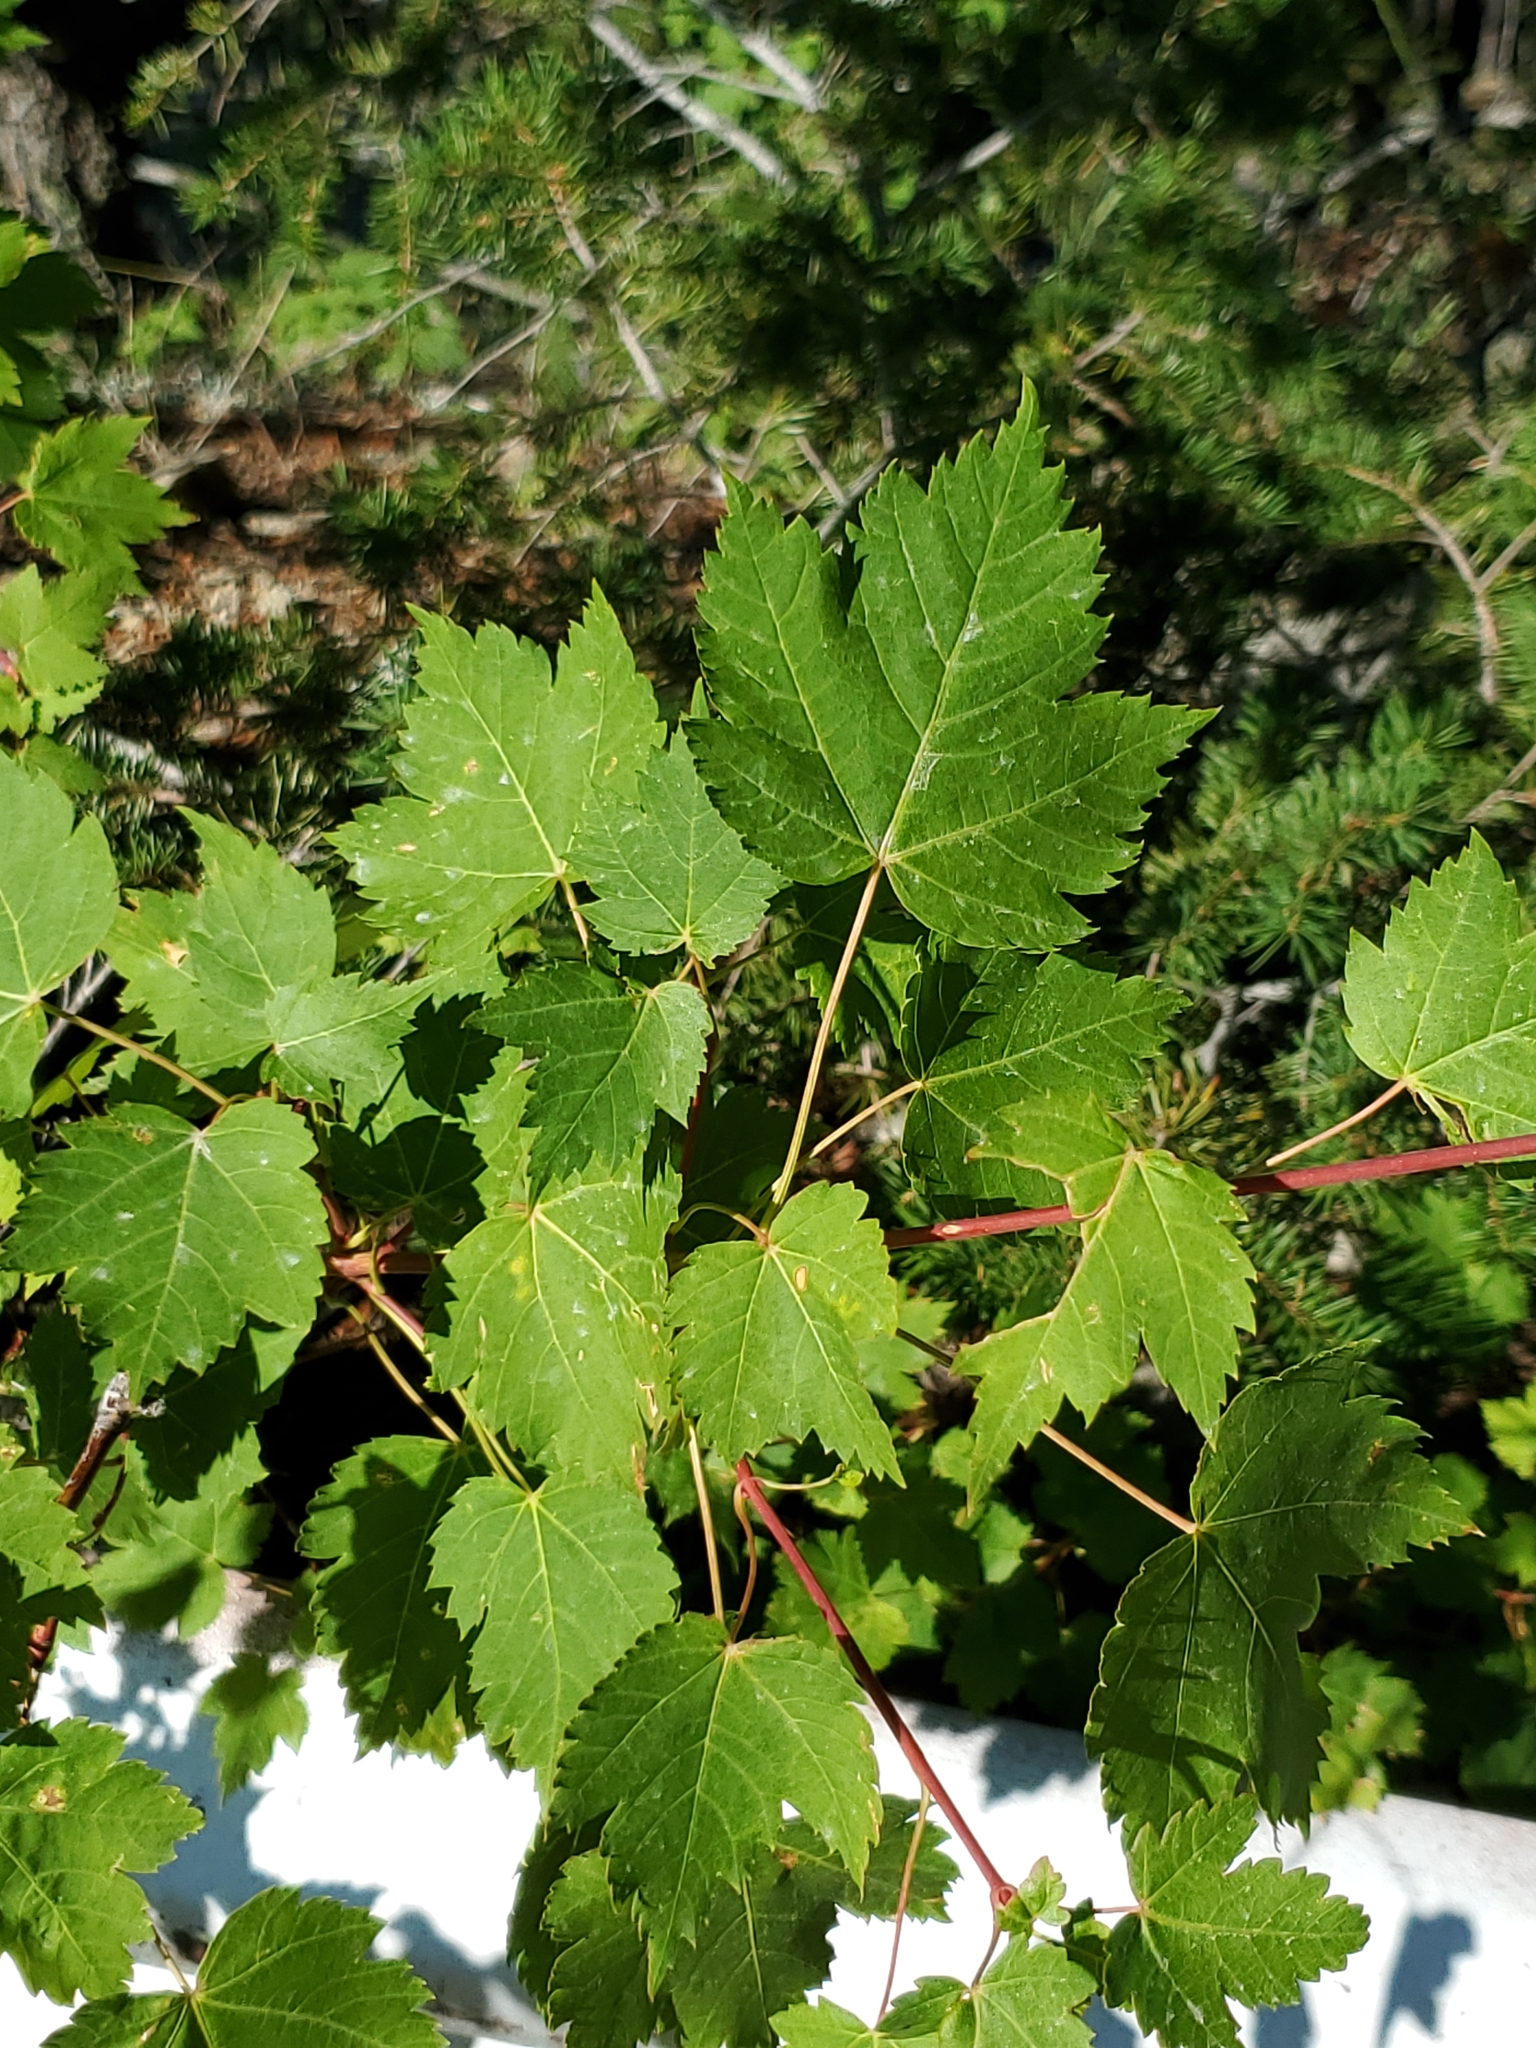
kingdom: Plantae
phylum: Tracheophyta
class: Magnoliopsida
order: Sapindales
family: Sapindaceae
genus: Acer
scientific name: Acer glabrum
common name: Rocky mountain maple
